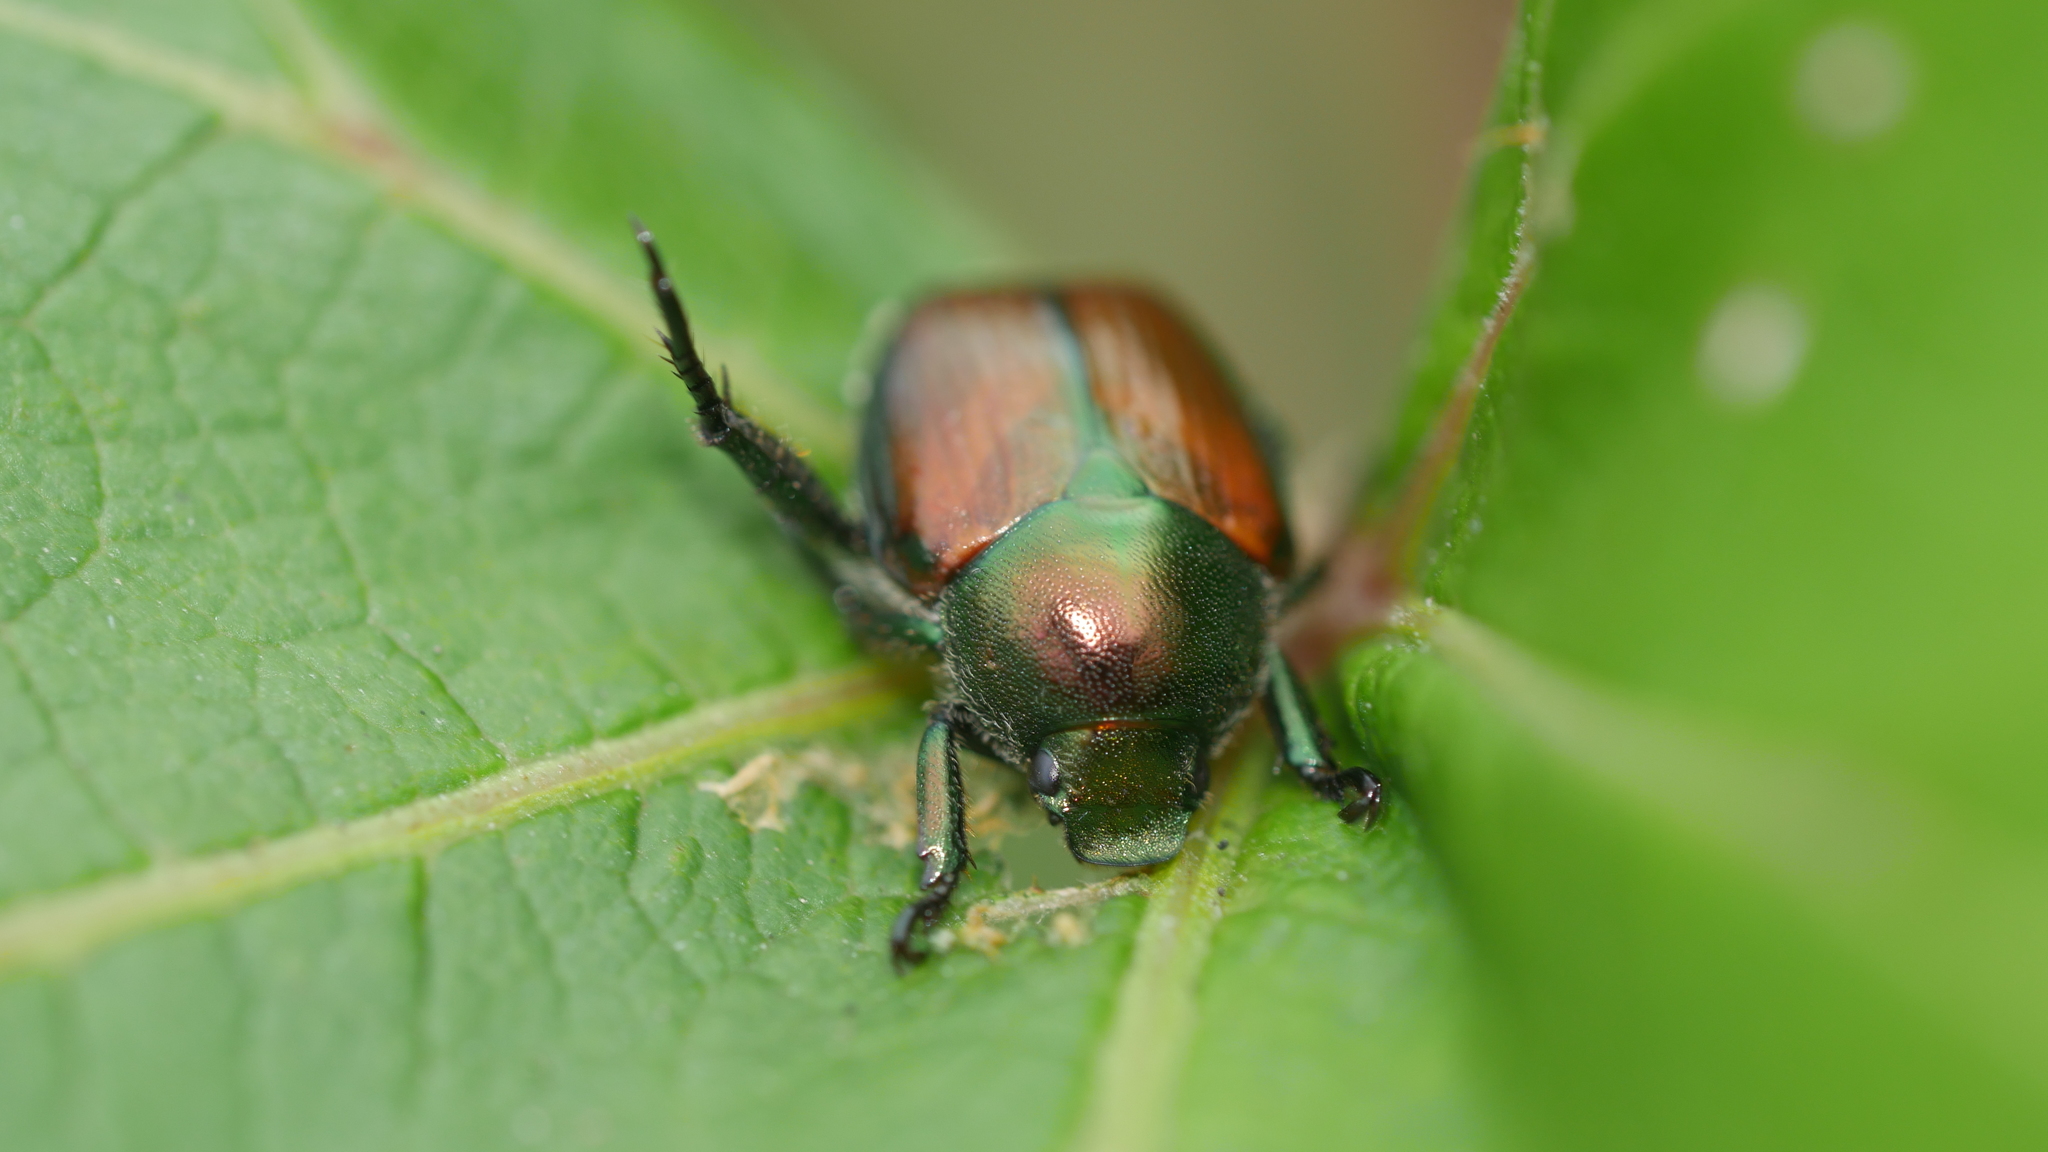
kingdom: Animalia
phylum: Arthropoda
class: Insecta
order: Coleoptera
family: Scarabaeidae
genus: Popillia
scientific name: Popillia japonica
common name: Japanese beetle
